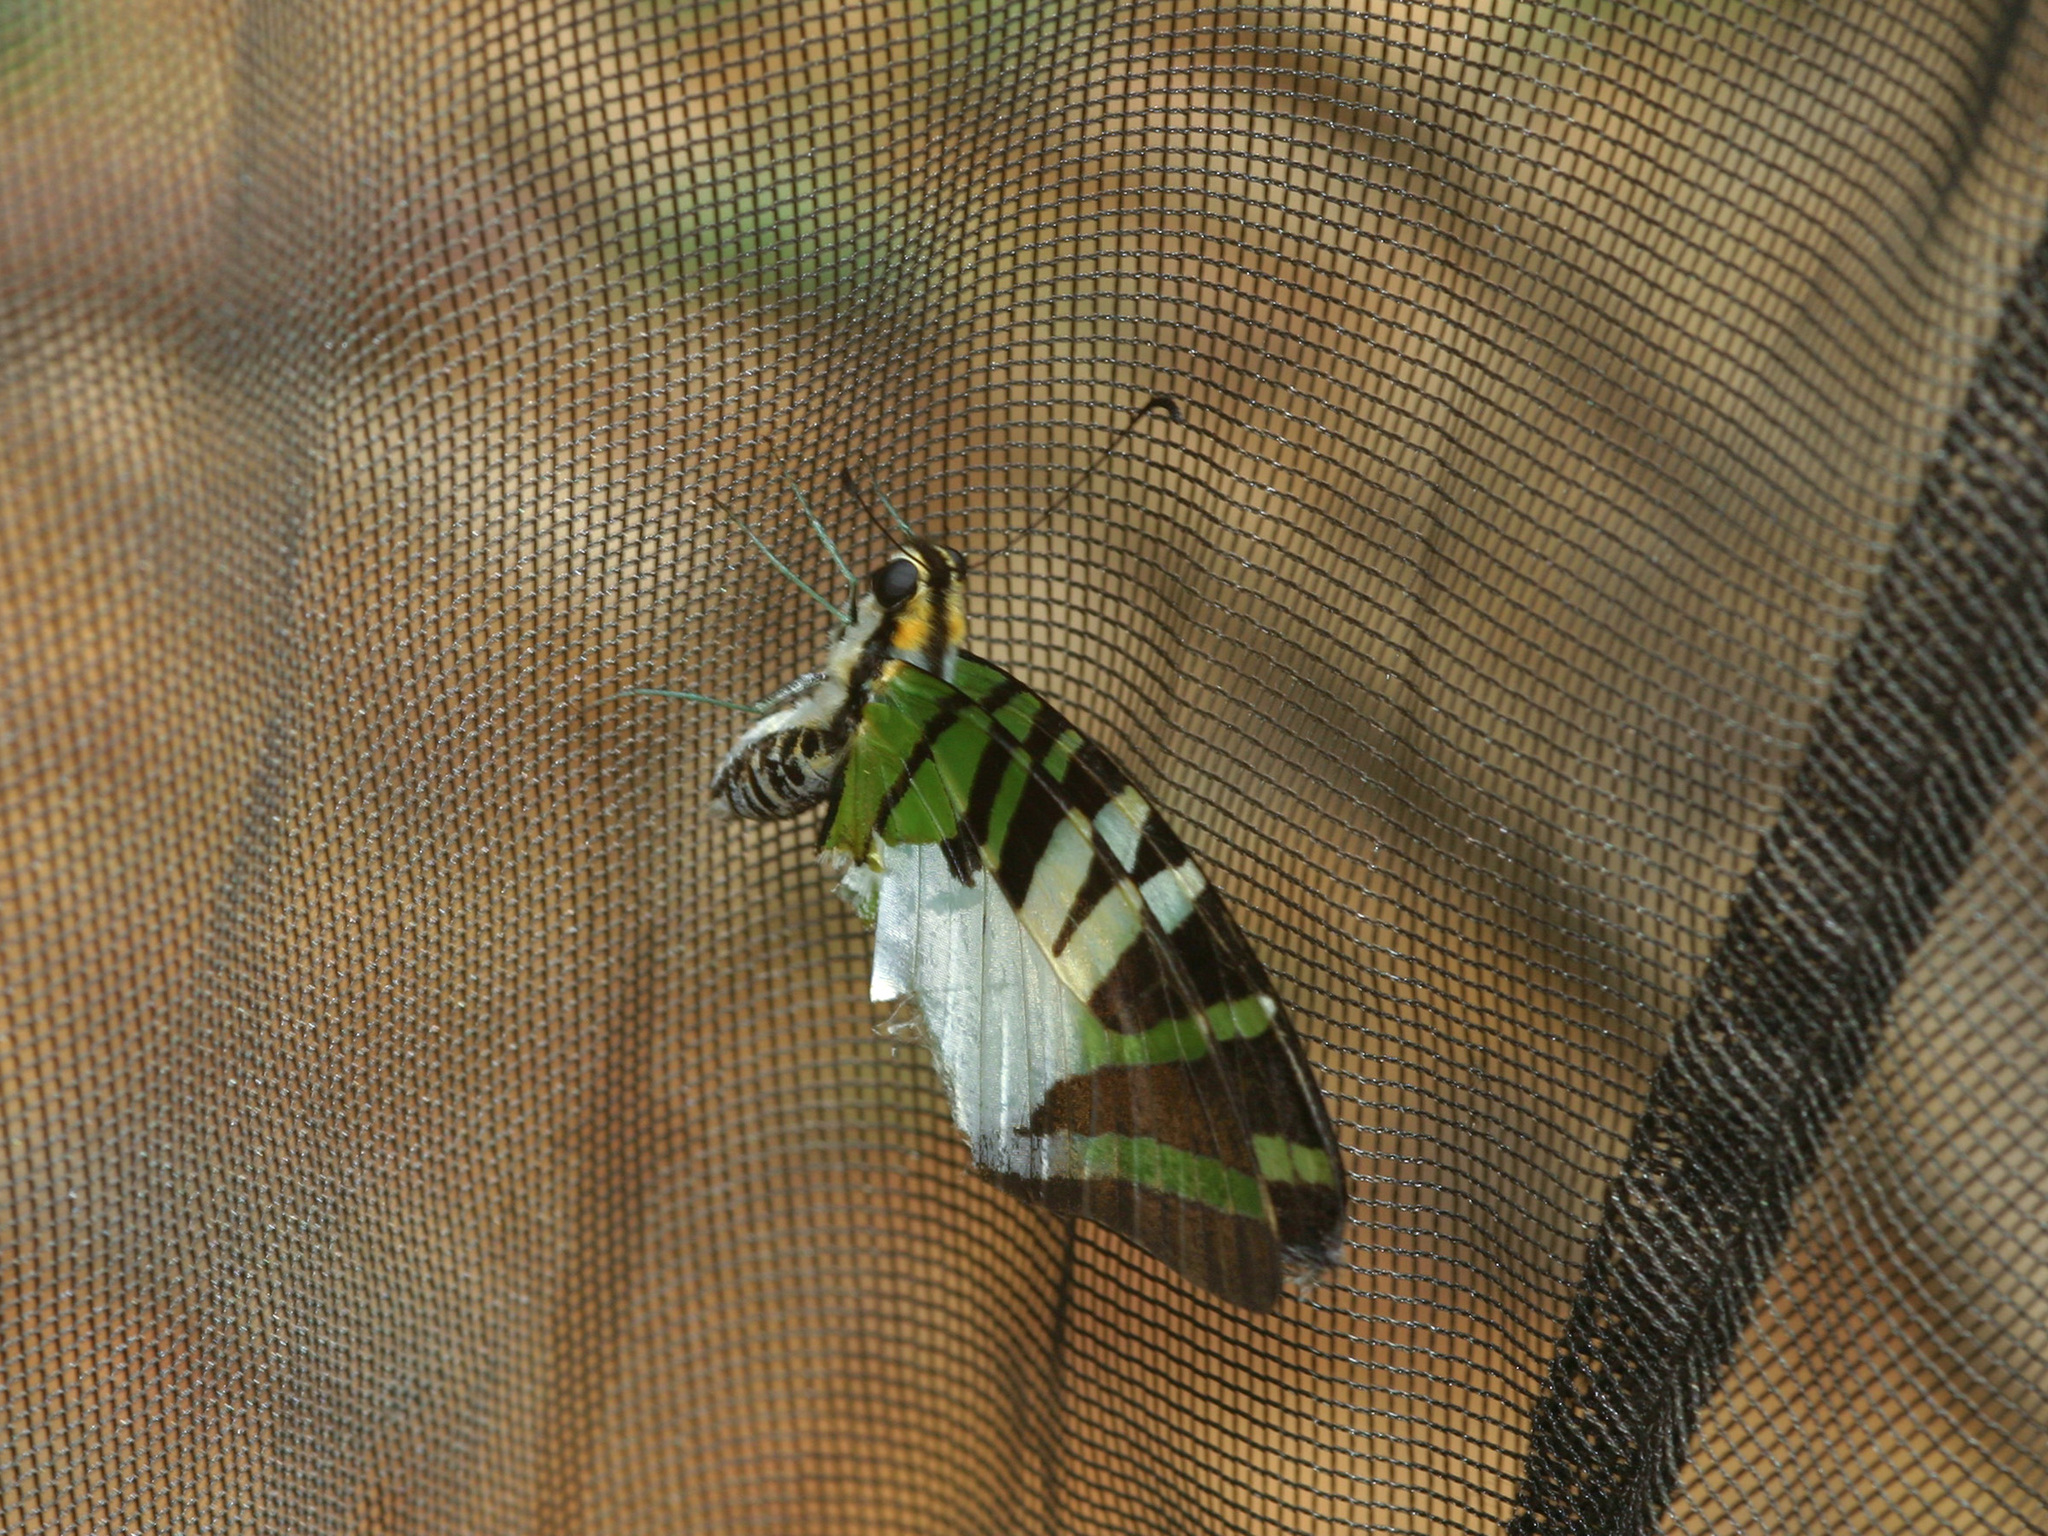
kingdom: Animalia
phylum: Arthropoda
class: Insecta
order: Lepidoptera
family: Papilionidae
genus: Graphium
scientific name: Graphium antiphates
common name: Fivebar swordtail
